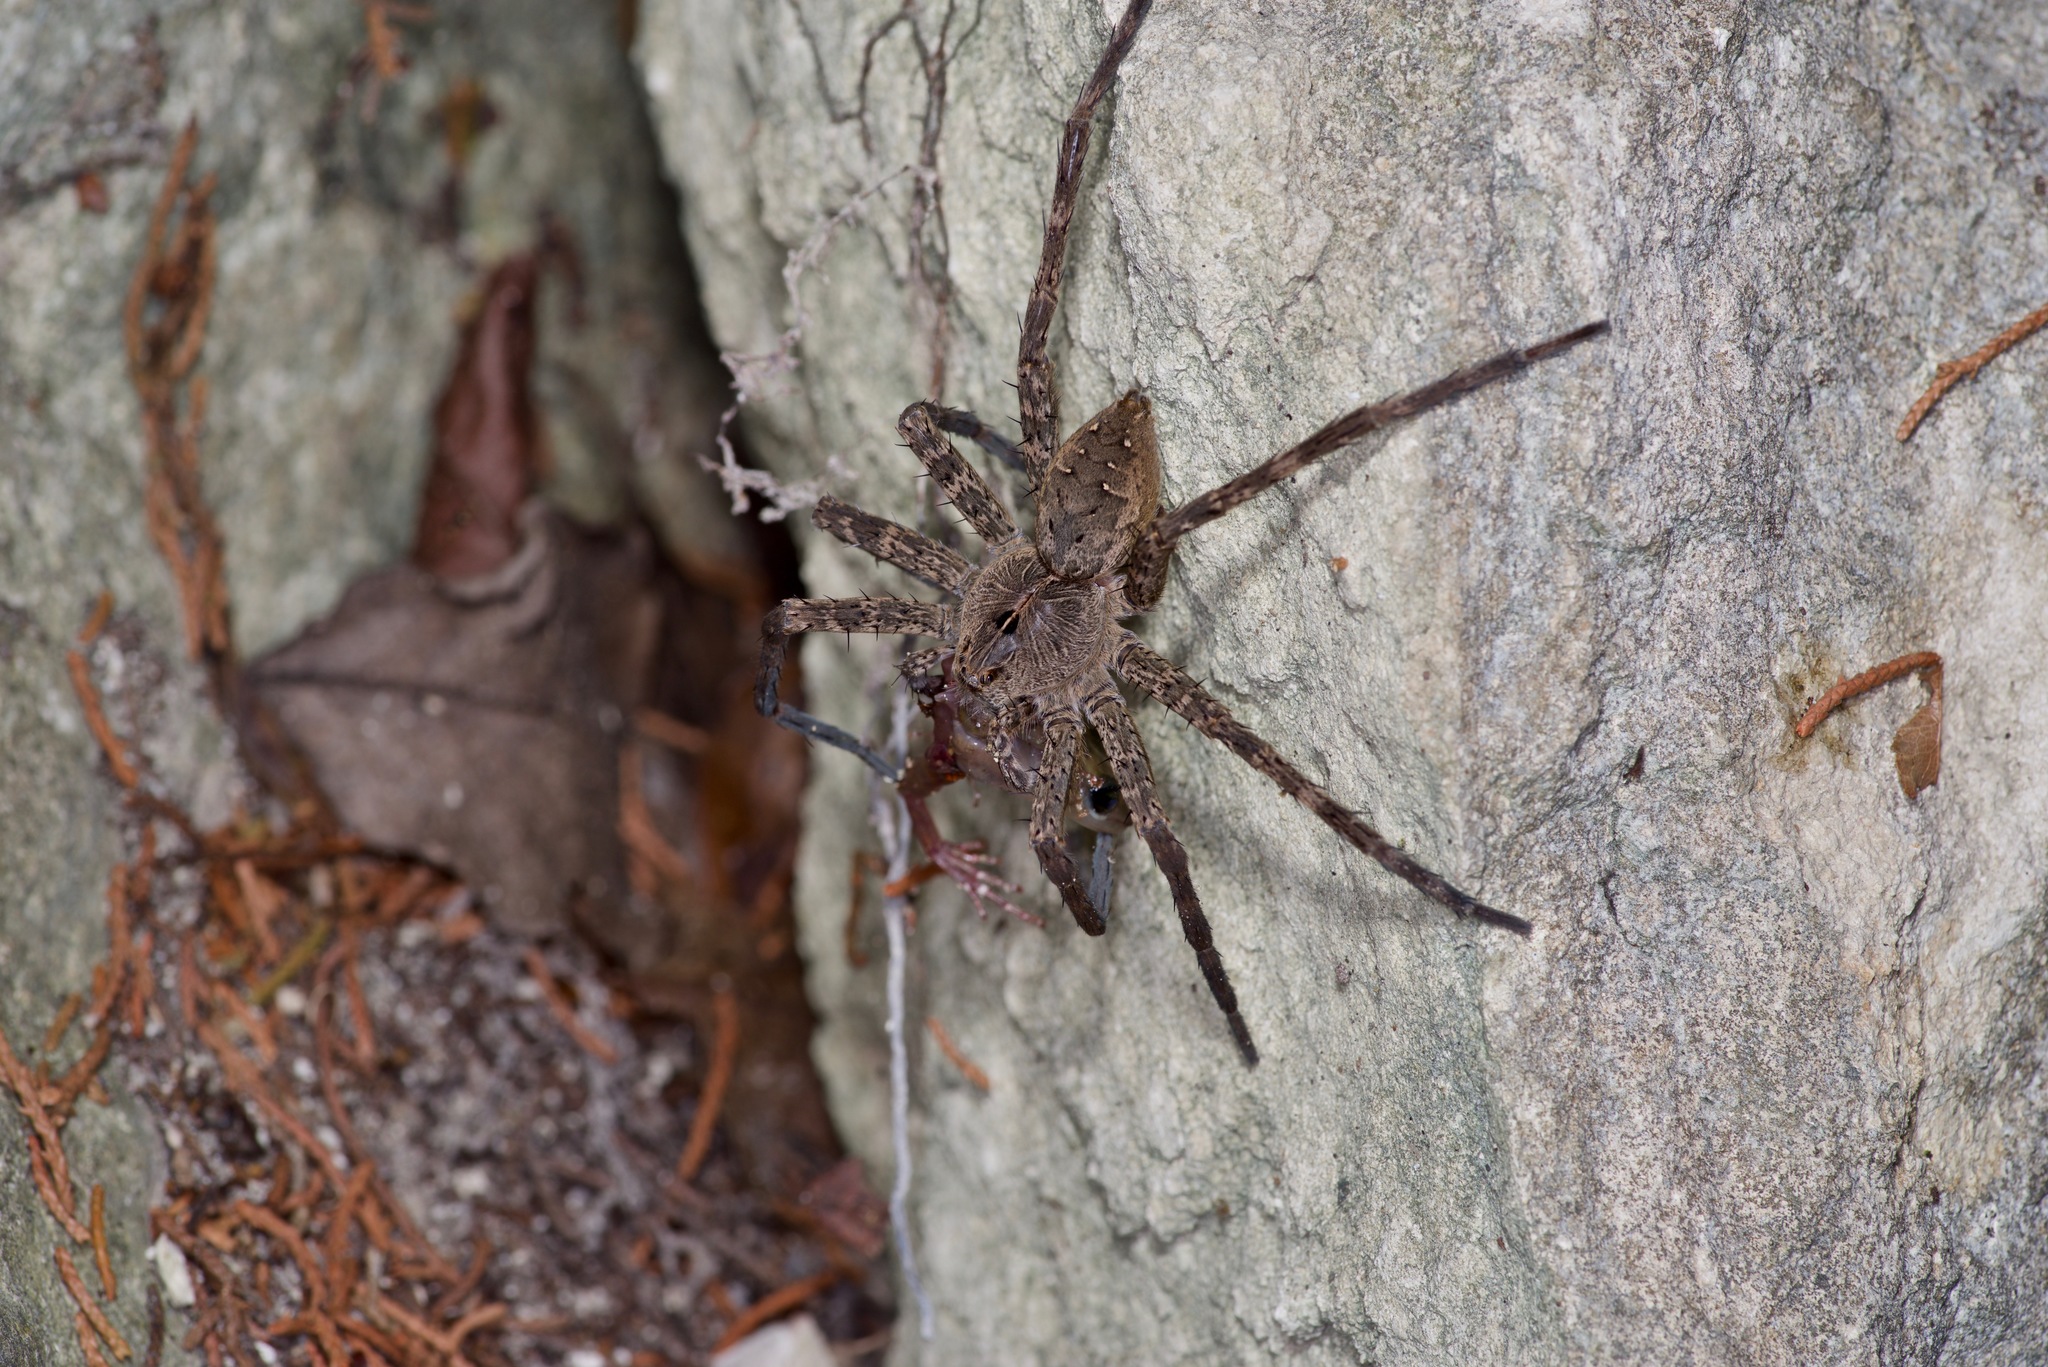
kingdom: Animalia
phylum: Arthropoda
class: Arachnida
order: Araneae
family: Pisauridae
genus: Dolomedes
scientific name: Dolomedes vittatus
